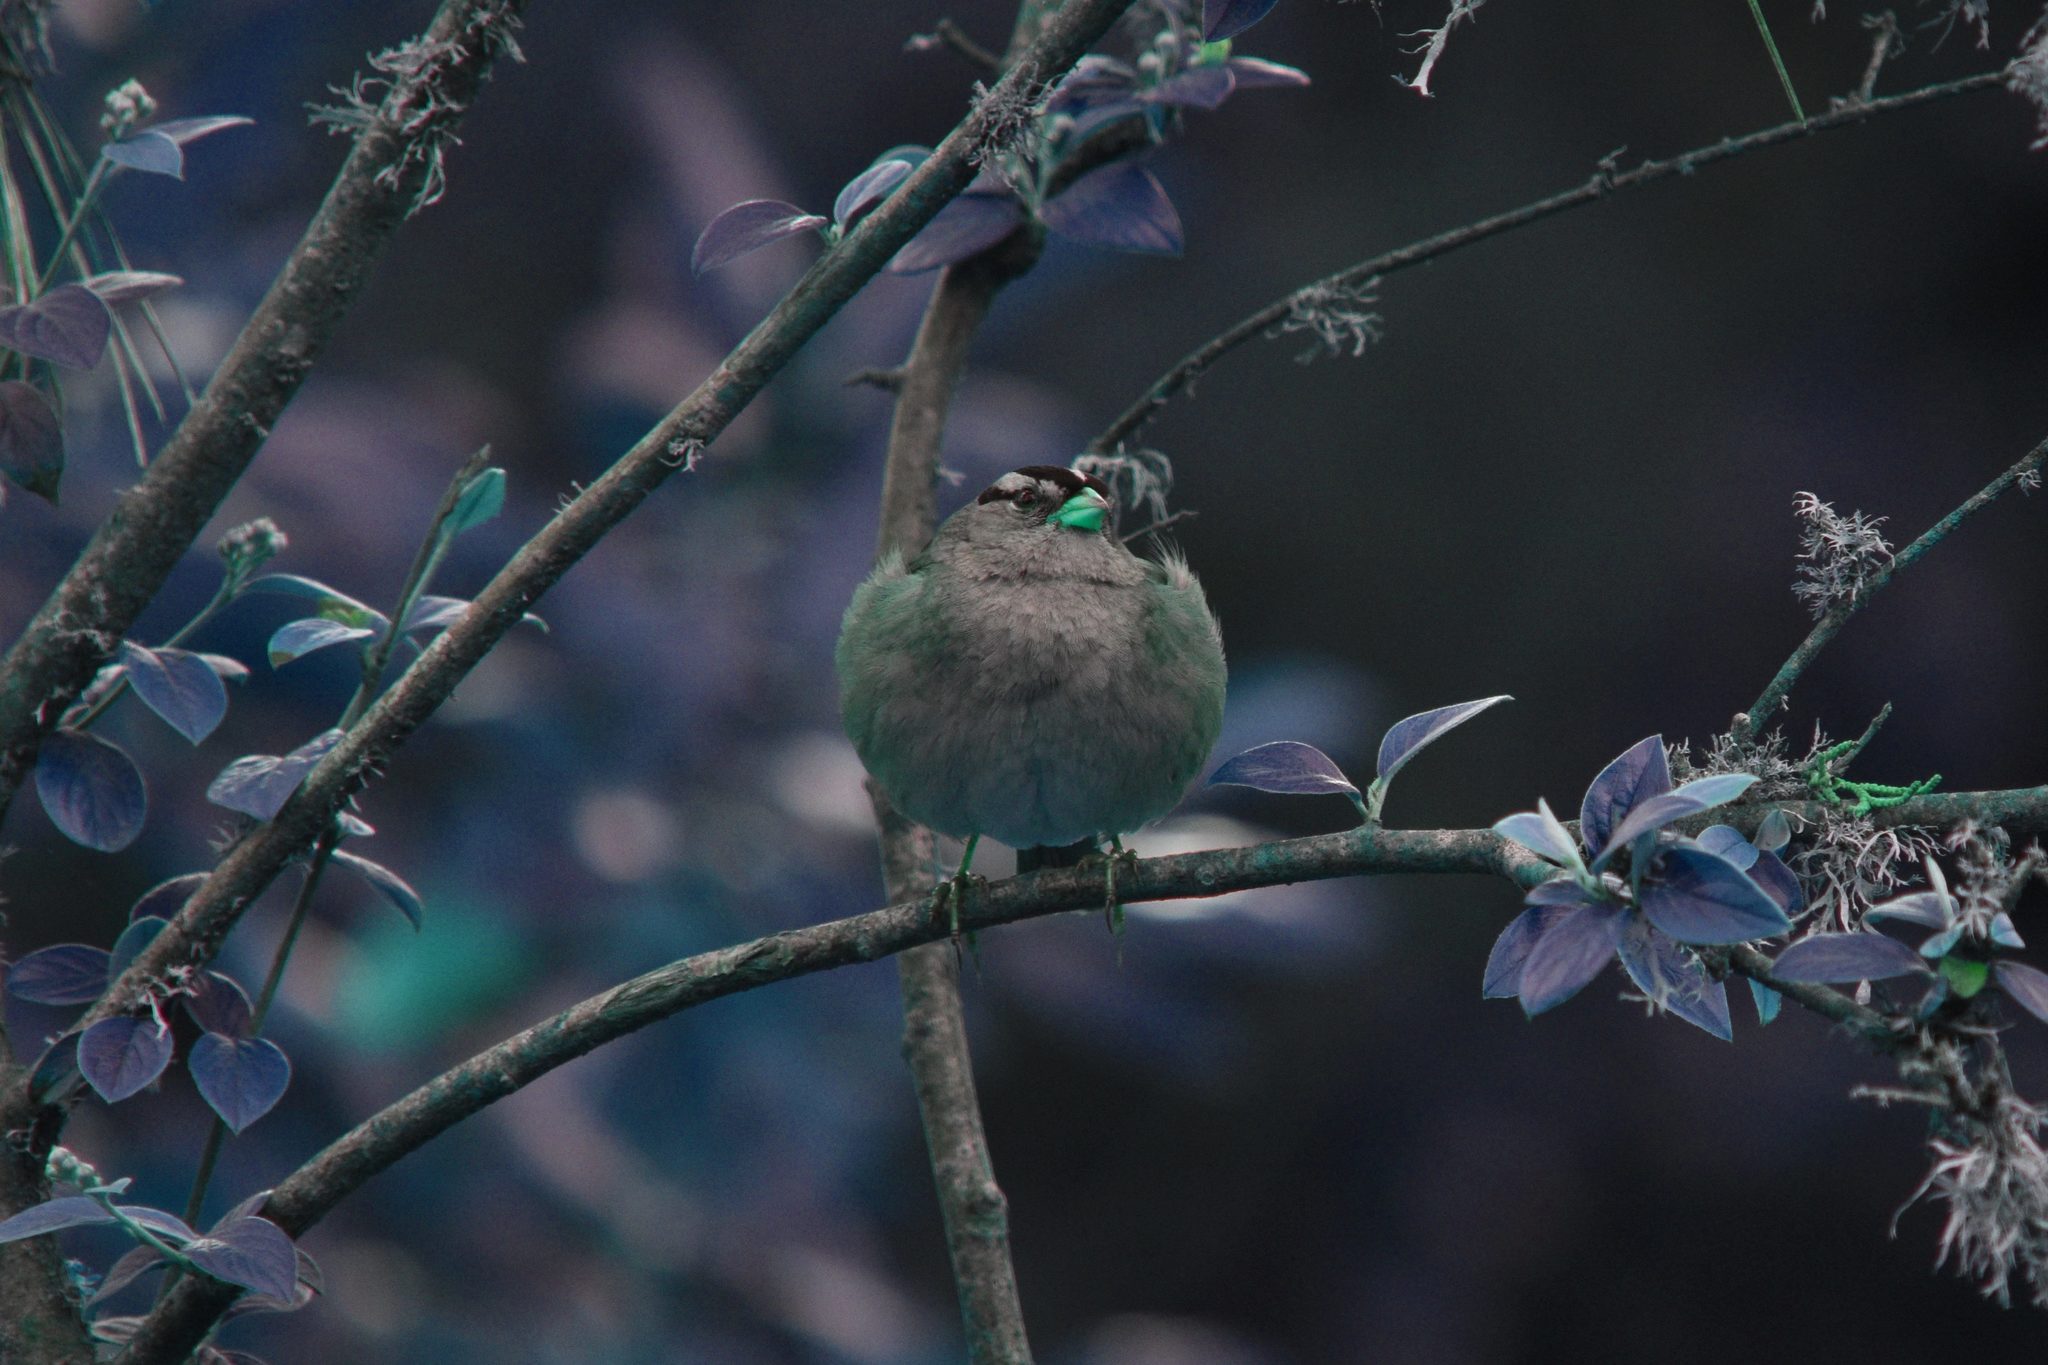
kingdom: Animalia
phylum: Chordata
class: Aves
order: Passeriformes
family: Passerellidae
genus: Zonotrichia
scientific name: Zonotrichia leucophrys
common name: White-crowned sparrow
